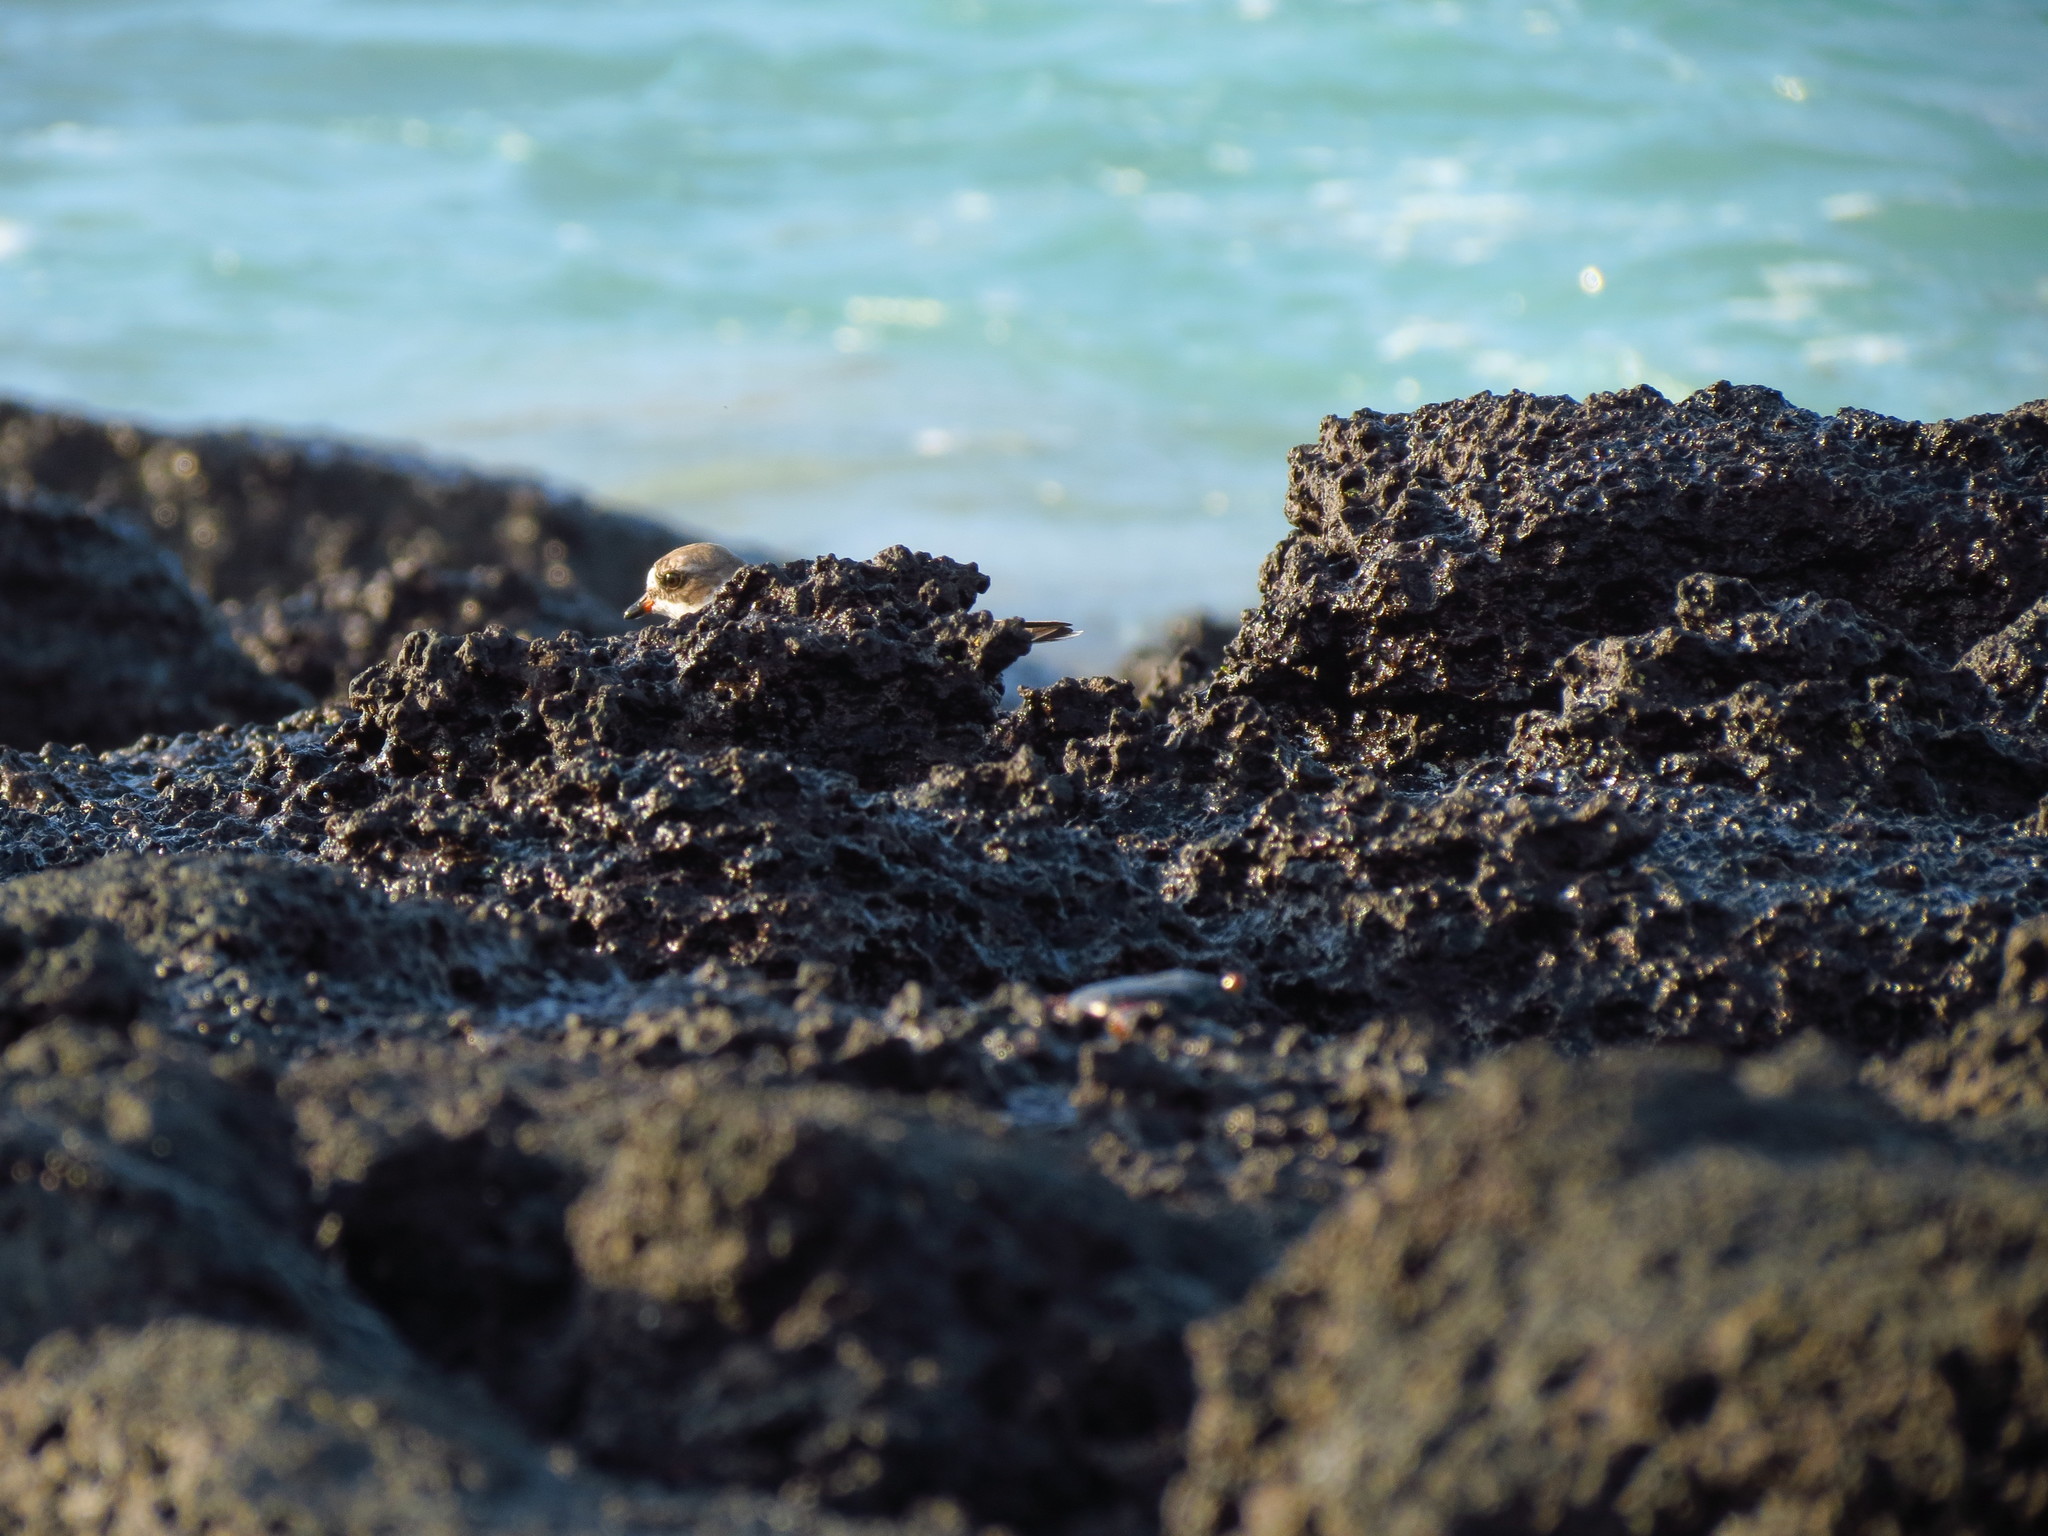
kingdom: Animalia
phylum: Chordata
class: Aves
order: Charadriiformes
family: Charadriidae
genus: Charadrius
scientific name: Charadrius semipalmatus
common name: Semipalmated plover
